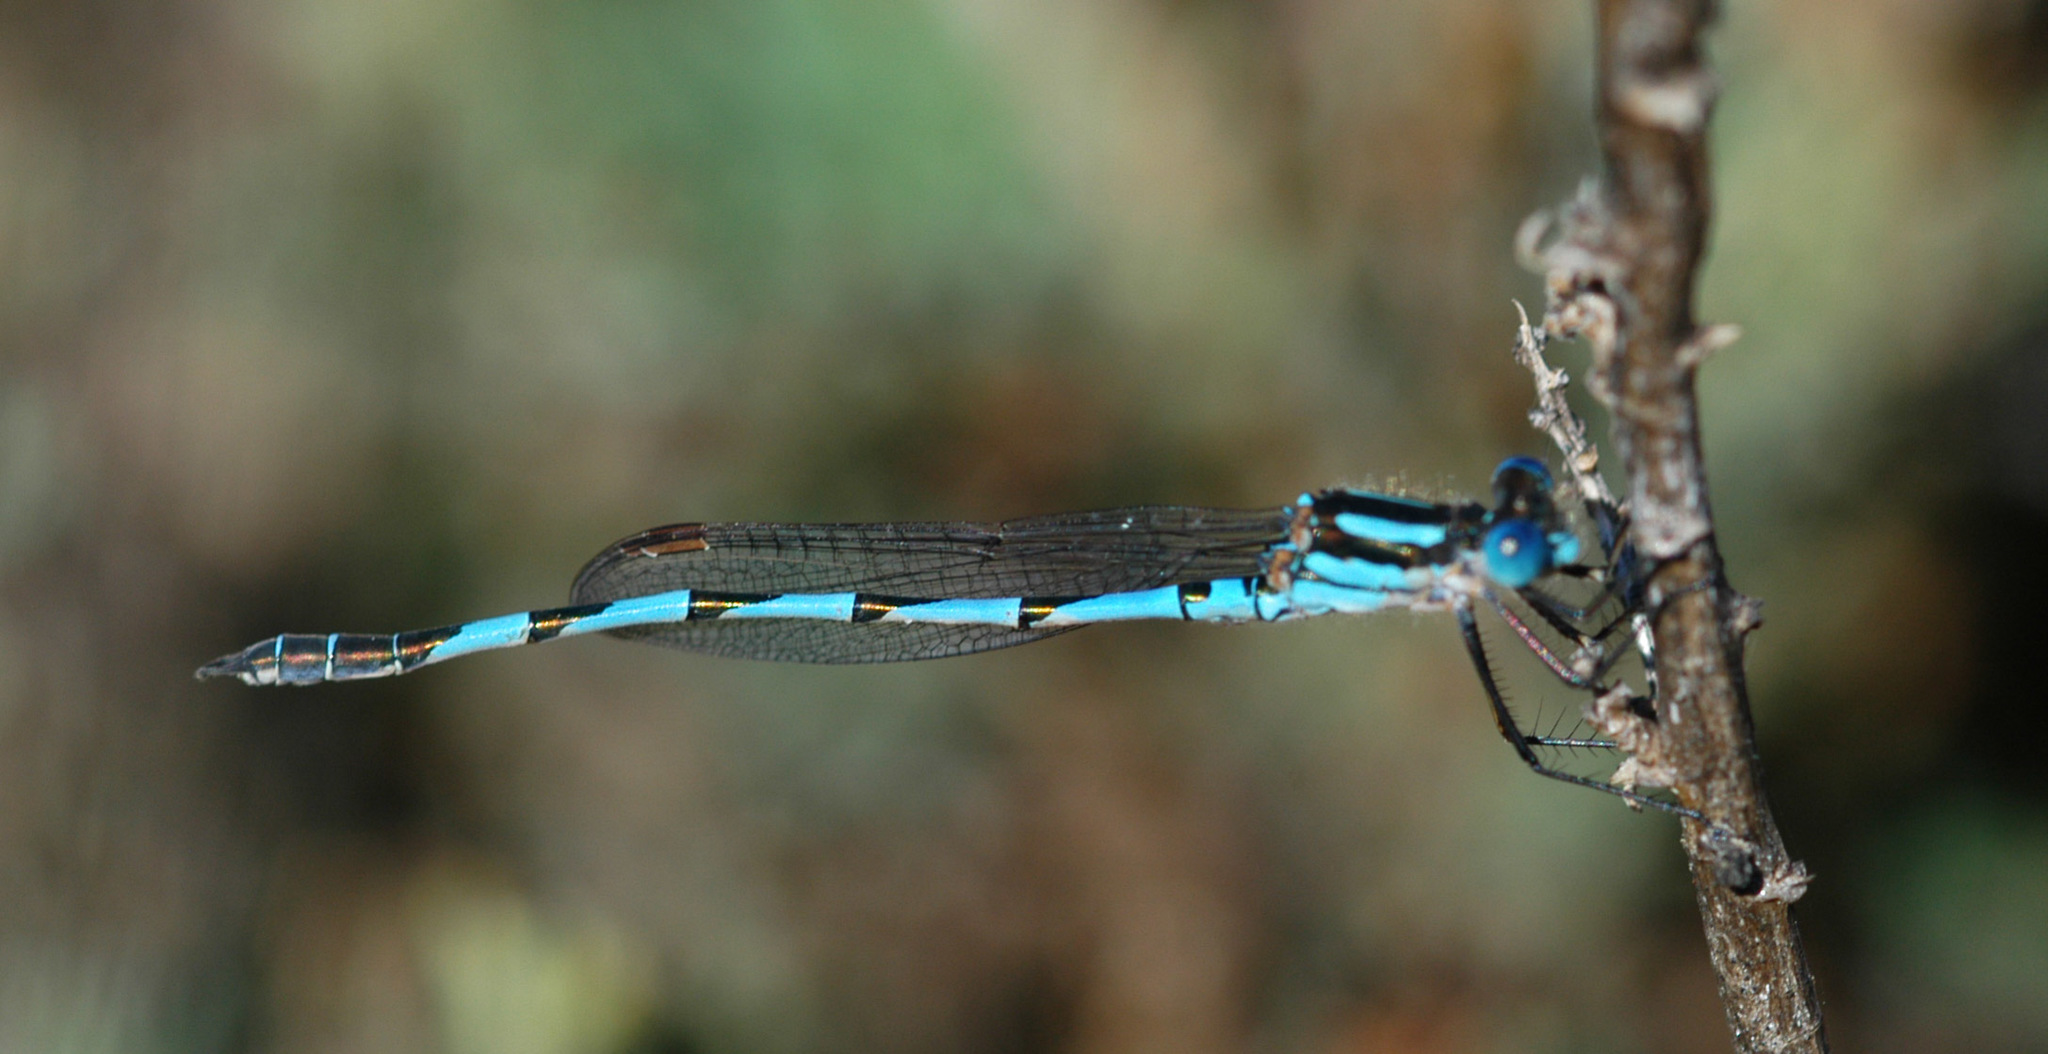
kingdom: Animalia
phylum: Arthropoda
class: Insecta
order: Odonata
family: Lestidae
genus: Austrolestes
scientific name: Austrolestes annulosus
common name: Blue ringtail
